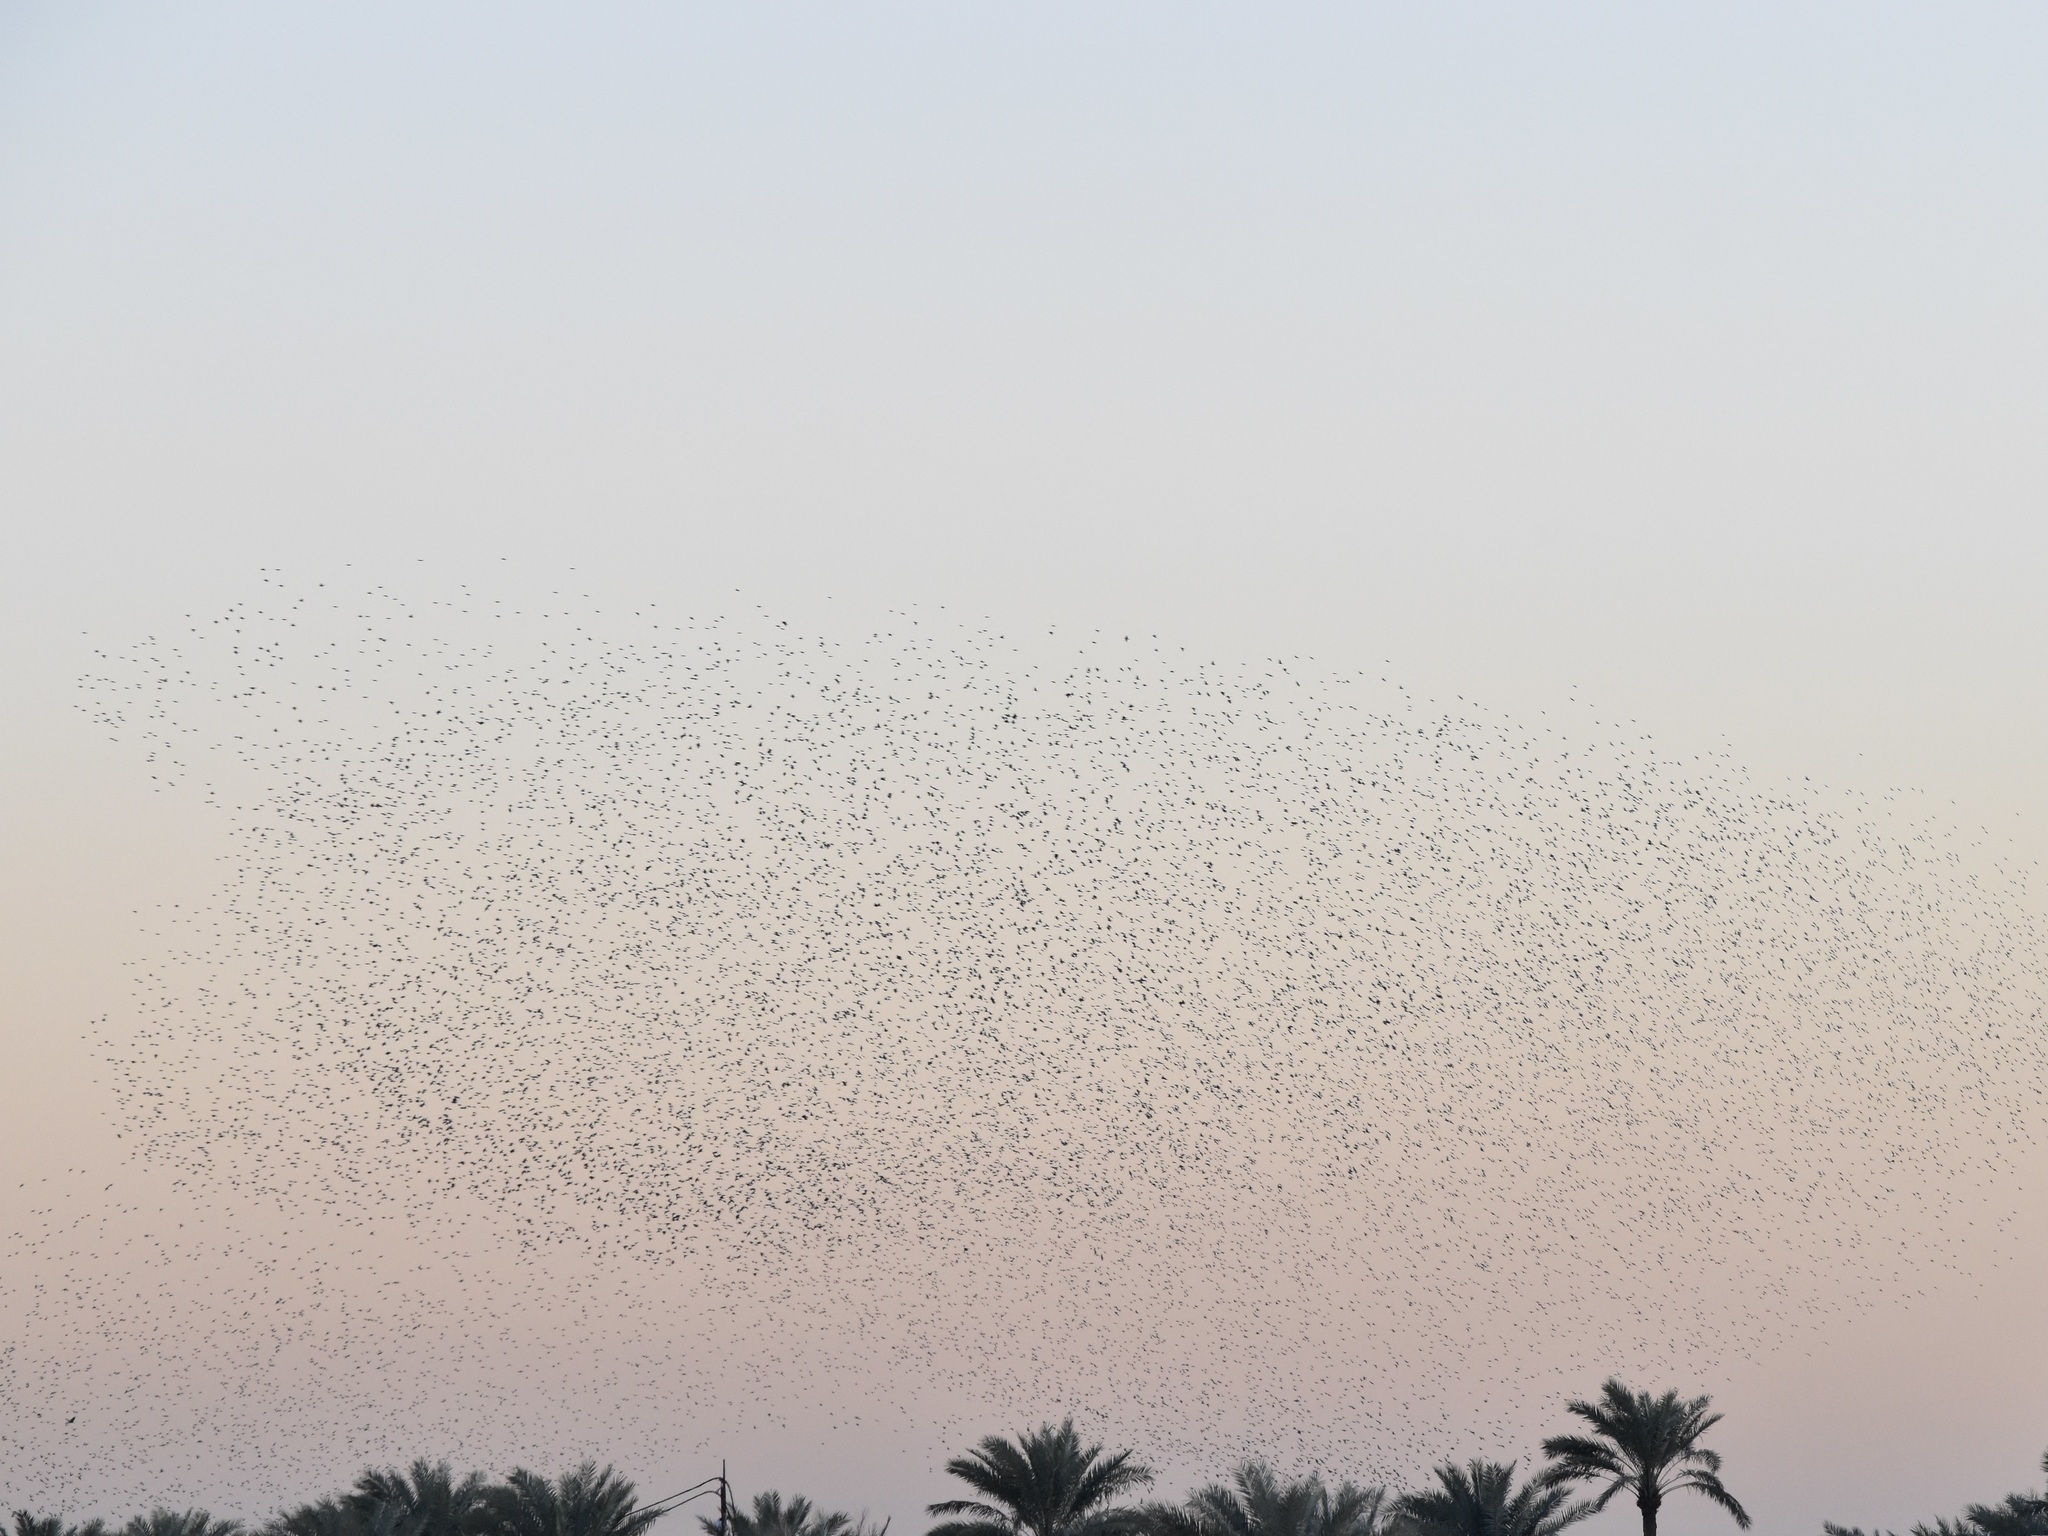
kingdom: Animalia
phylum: Chordata
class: Aves
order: Passeriformes
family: Sturnidae
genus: Sturnus
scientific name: Sturnus vulgaris
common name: Common starling
